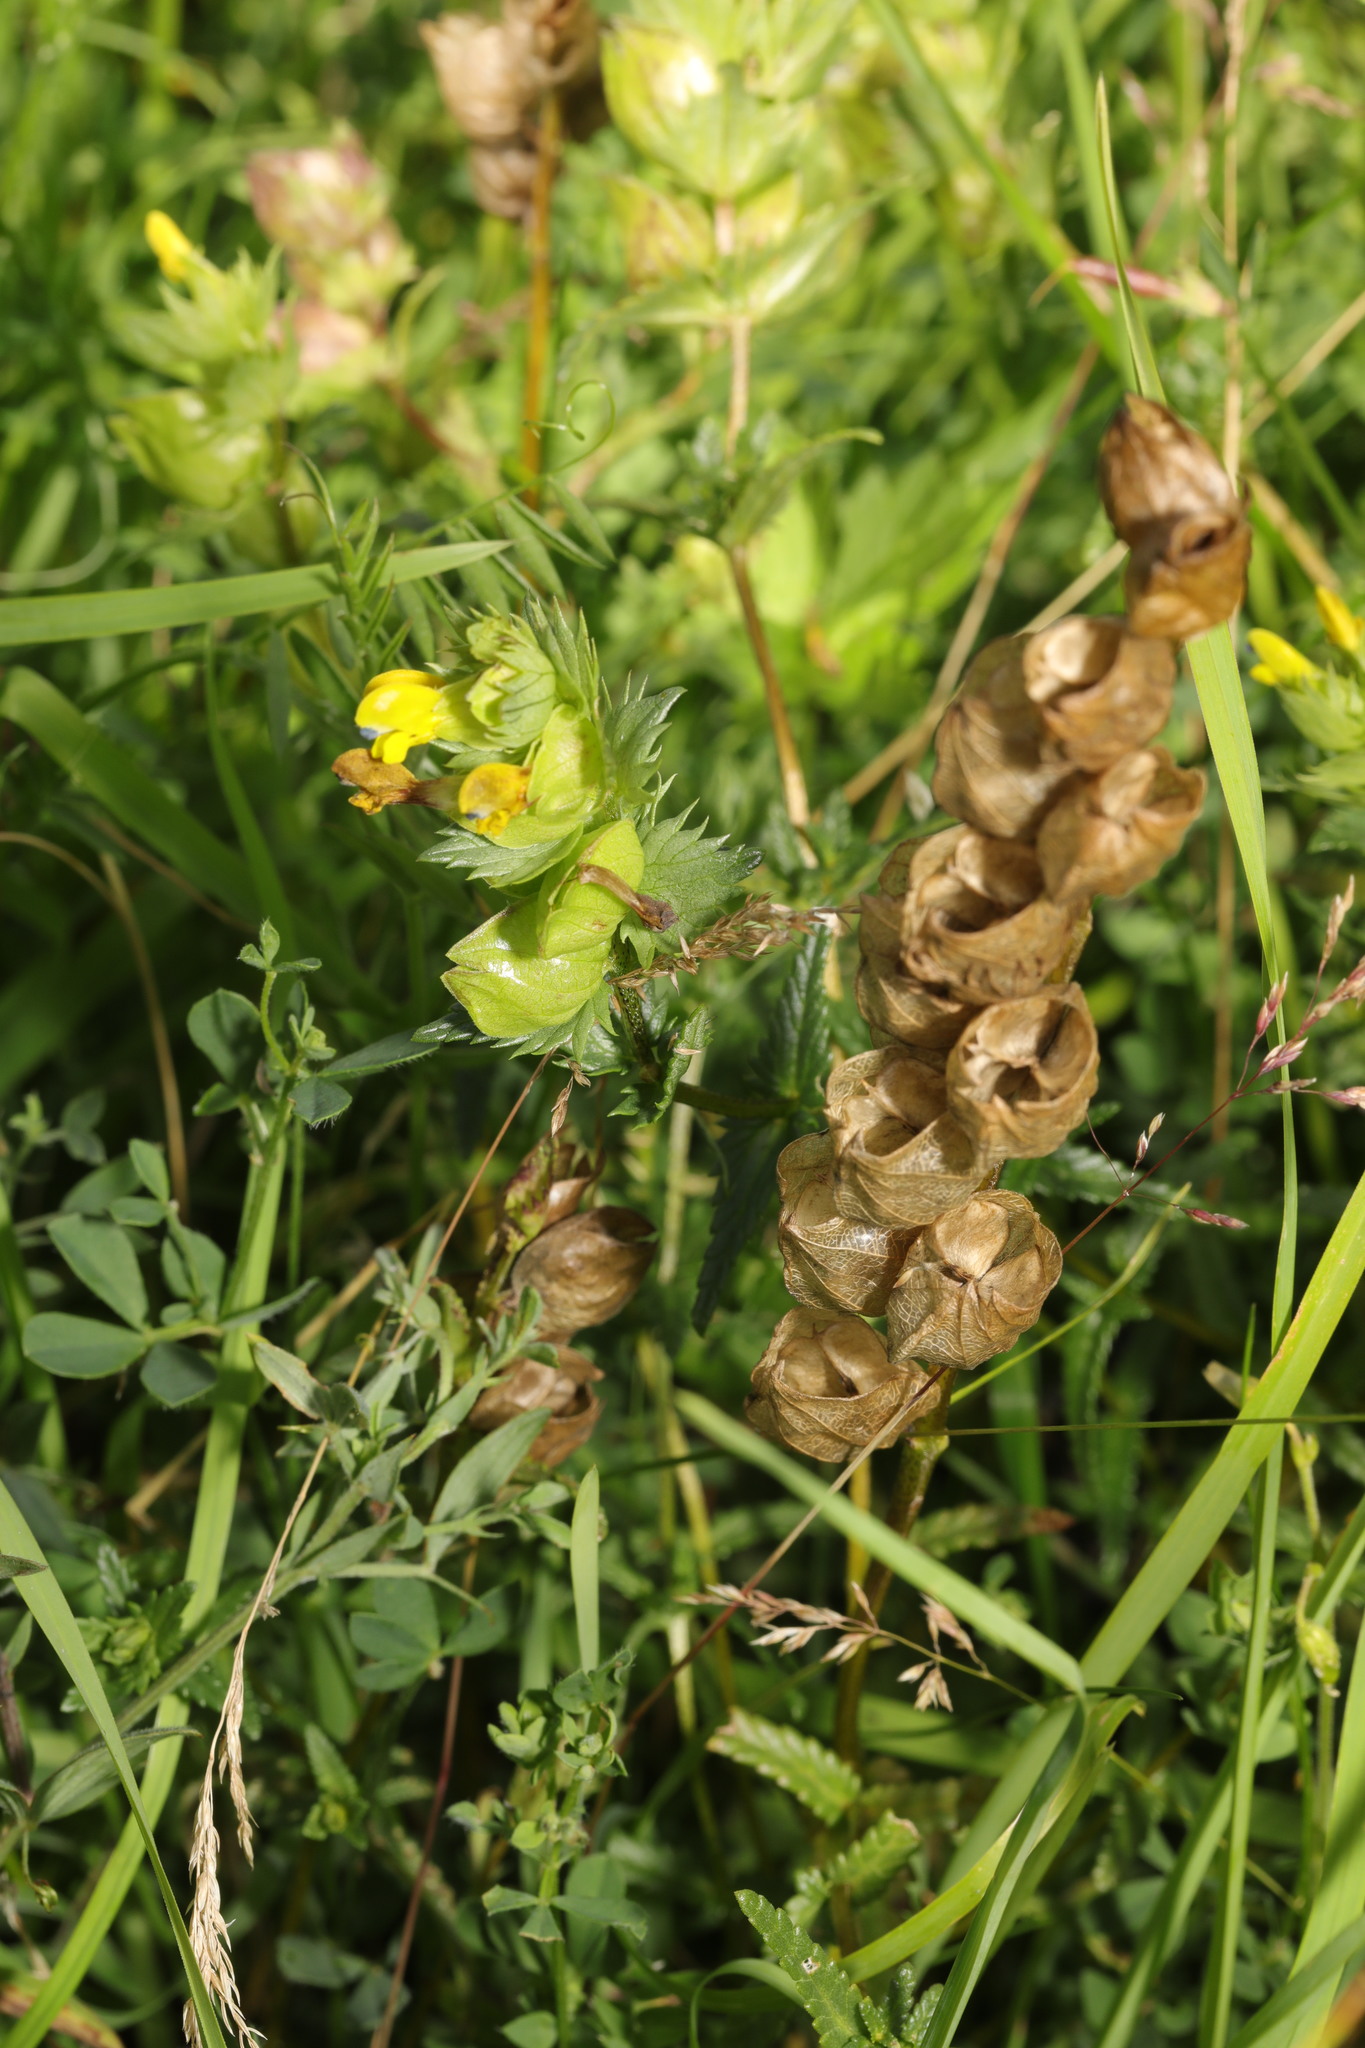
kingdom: Plantae
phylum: Tracheophyta
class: Magnoliopsida
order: Lamiales
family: Orobanchaceae
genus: Rhinanthus
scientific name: Rhinanthus minor
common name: Yellow-rattle
